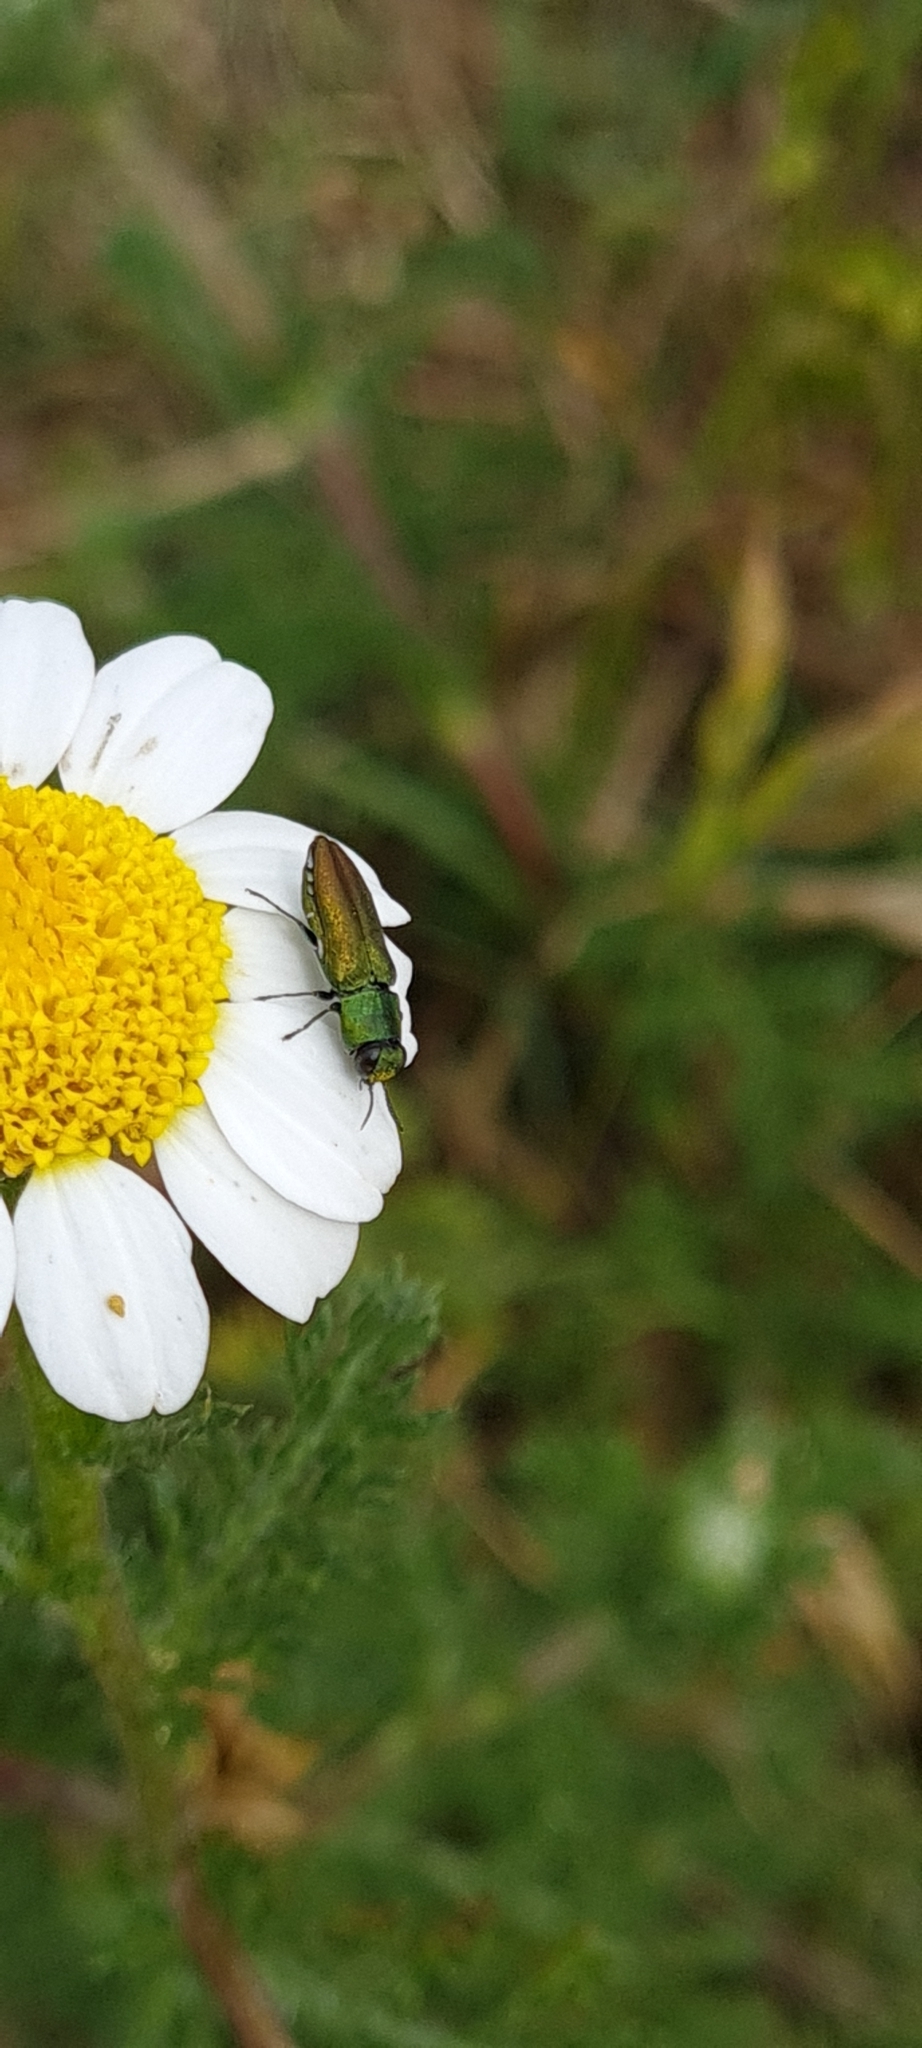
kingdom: Animalia
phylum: Arthropoda
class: Insecta
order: Coleoptera
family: Buprestidae
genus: Anthaxia
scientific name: Anthaxia millefolii
